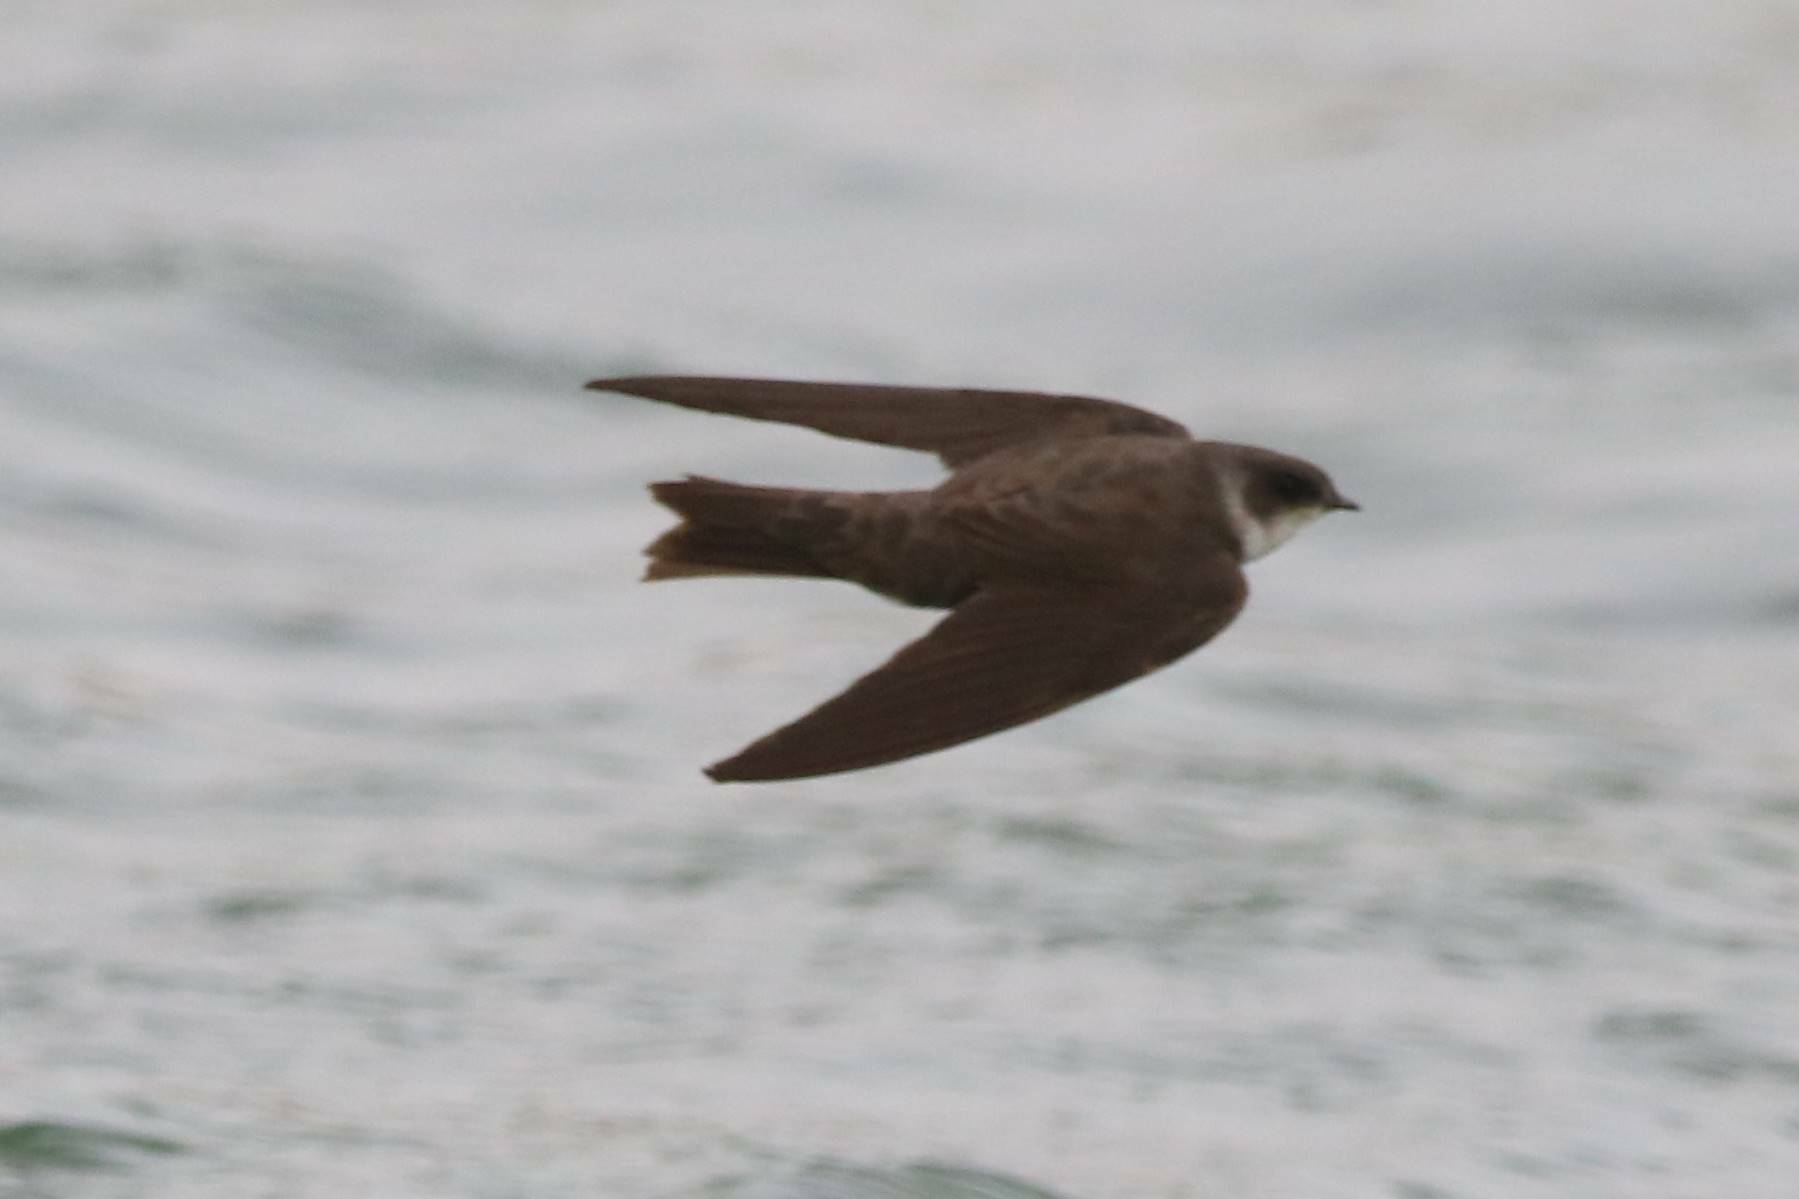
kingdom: Animalia
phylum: Chordata
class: Aves
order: Passeriformes
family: Hirundinidae
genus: Riparia
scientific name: Riparia riparia
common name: Sand martin
